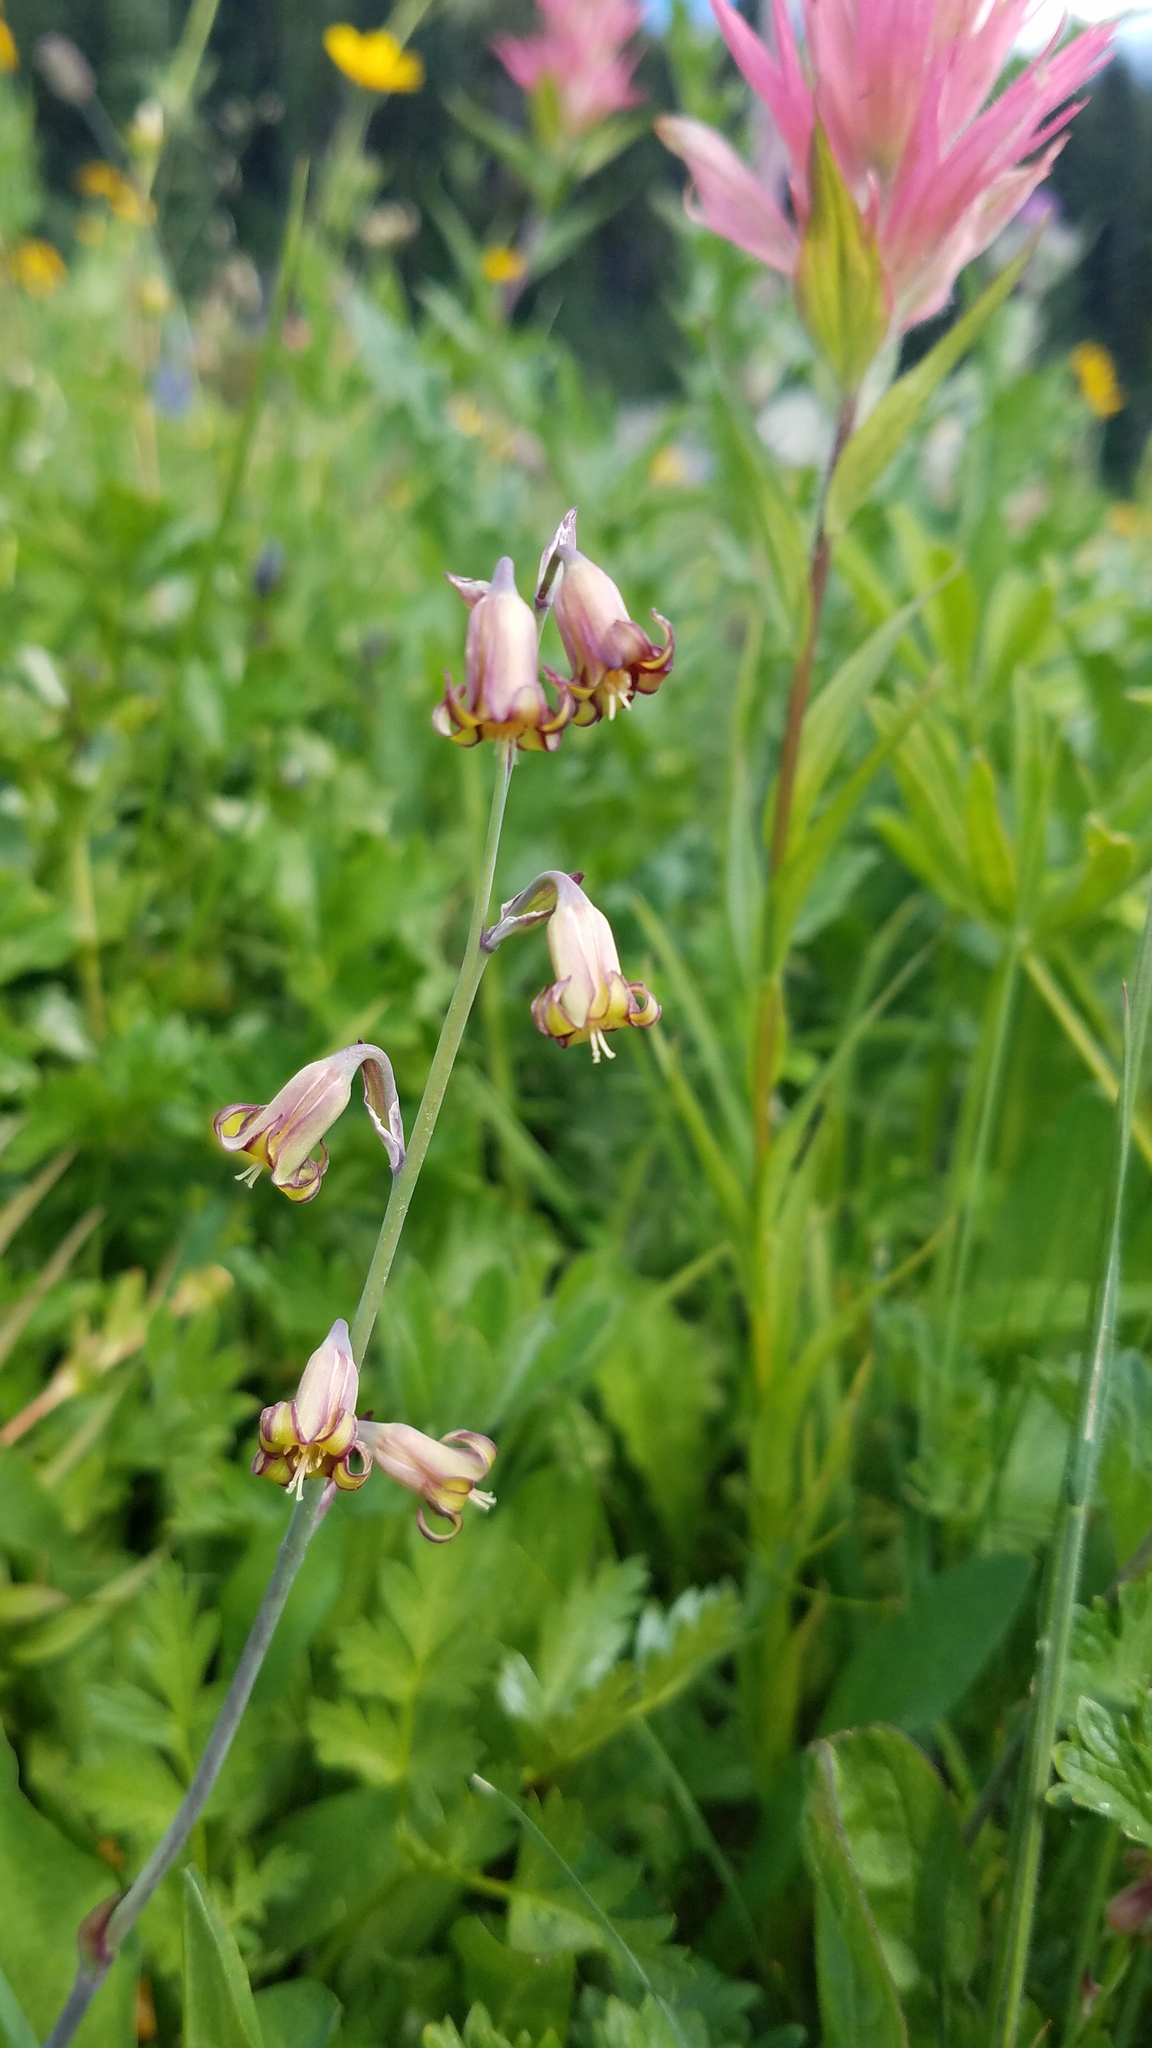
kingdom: Plantae
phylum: Tracheophyta
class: Liliopsida
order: Liliales
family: Melanthiaceae
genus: Anticlea
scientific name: Anticlea occidentalis
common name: Bronze-bells
